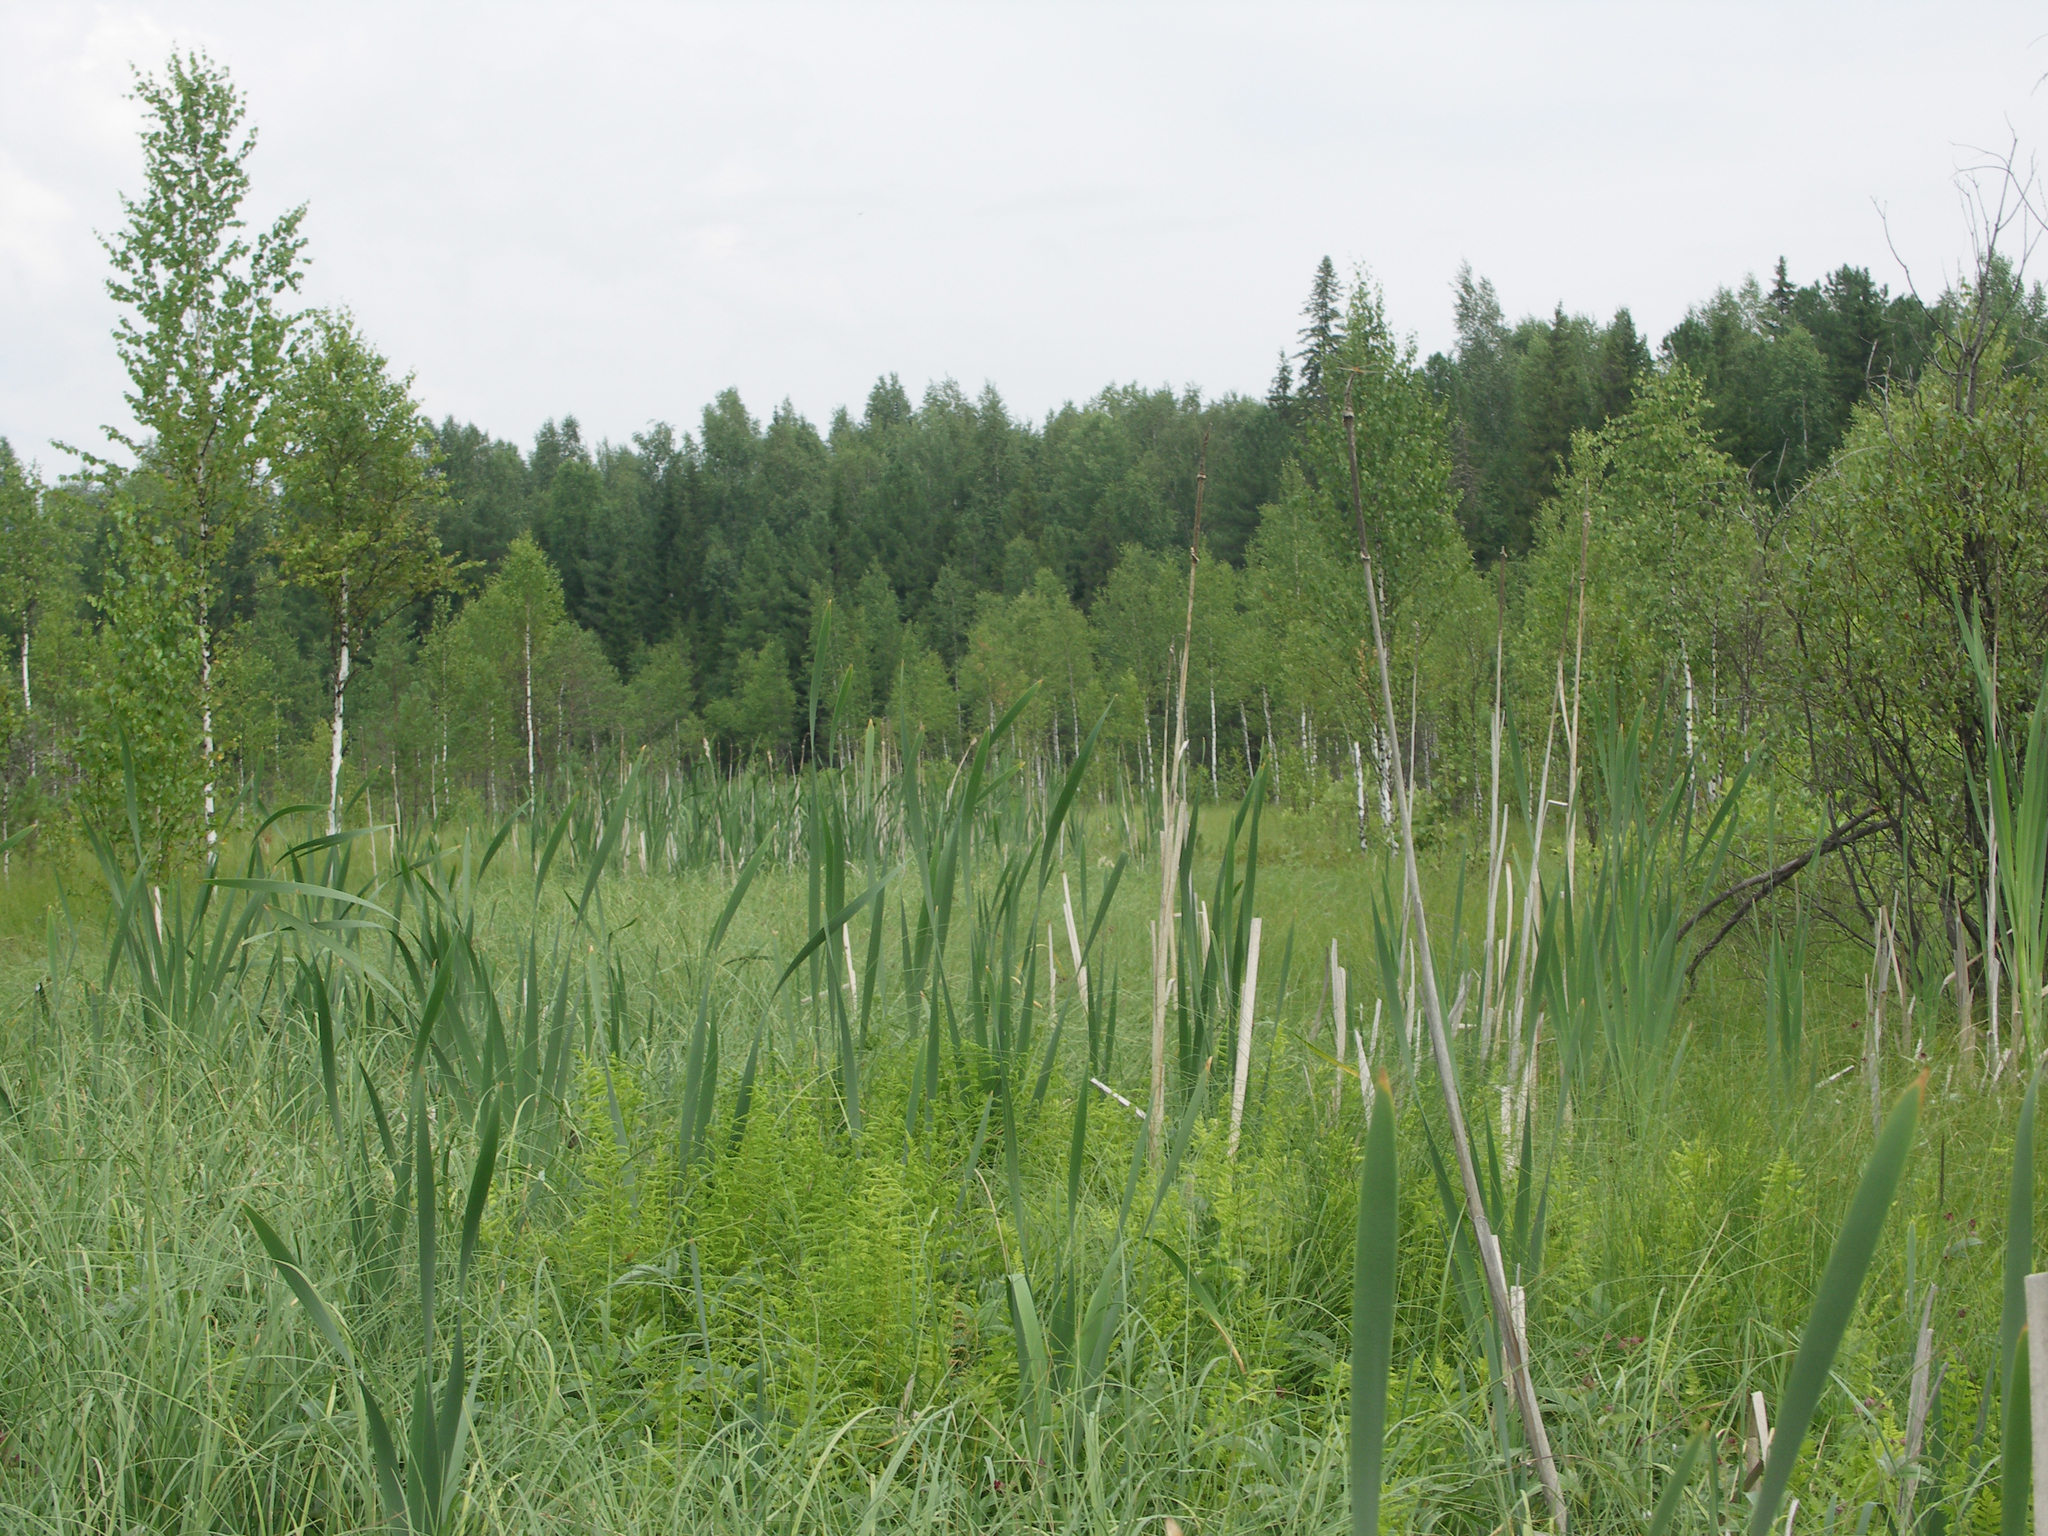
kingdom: Plantae
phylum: Tracheophyta
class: Liliopsida
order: Poales
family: Typhaceae
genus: Typha
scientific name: Typha latifolia
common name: Broadleaf cattail
